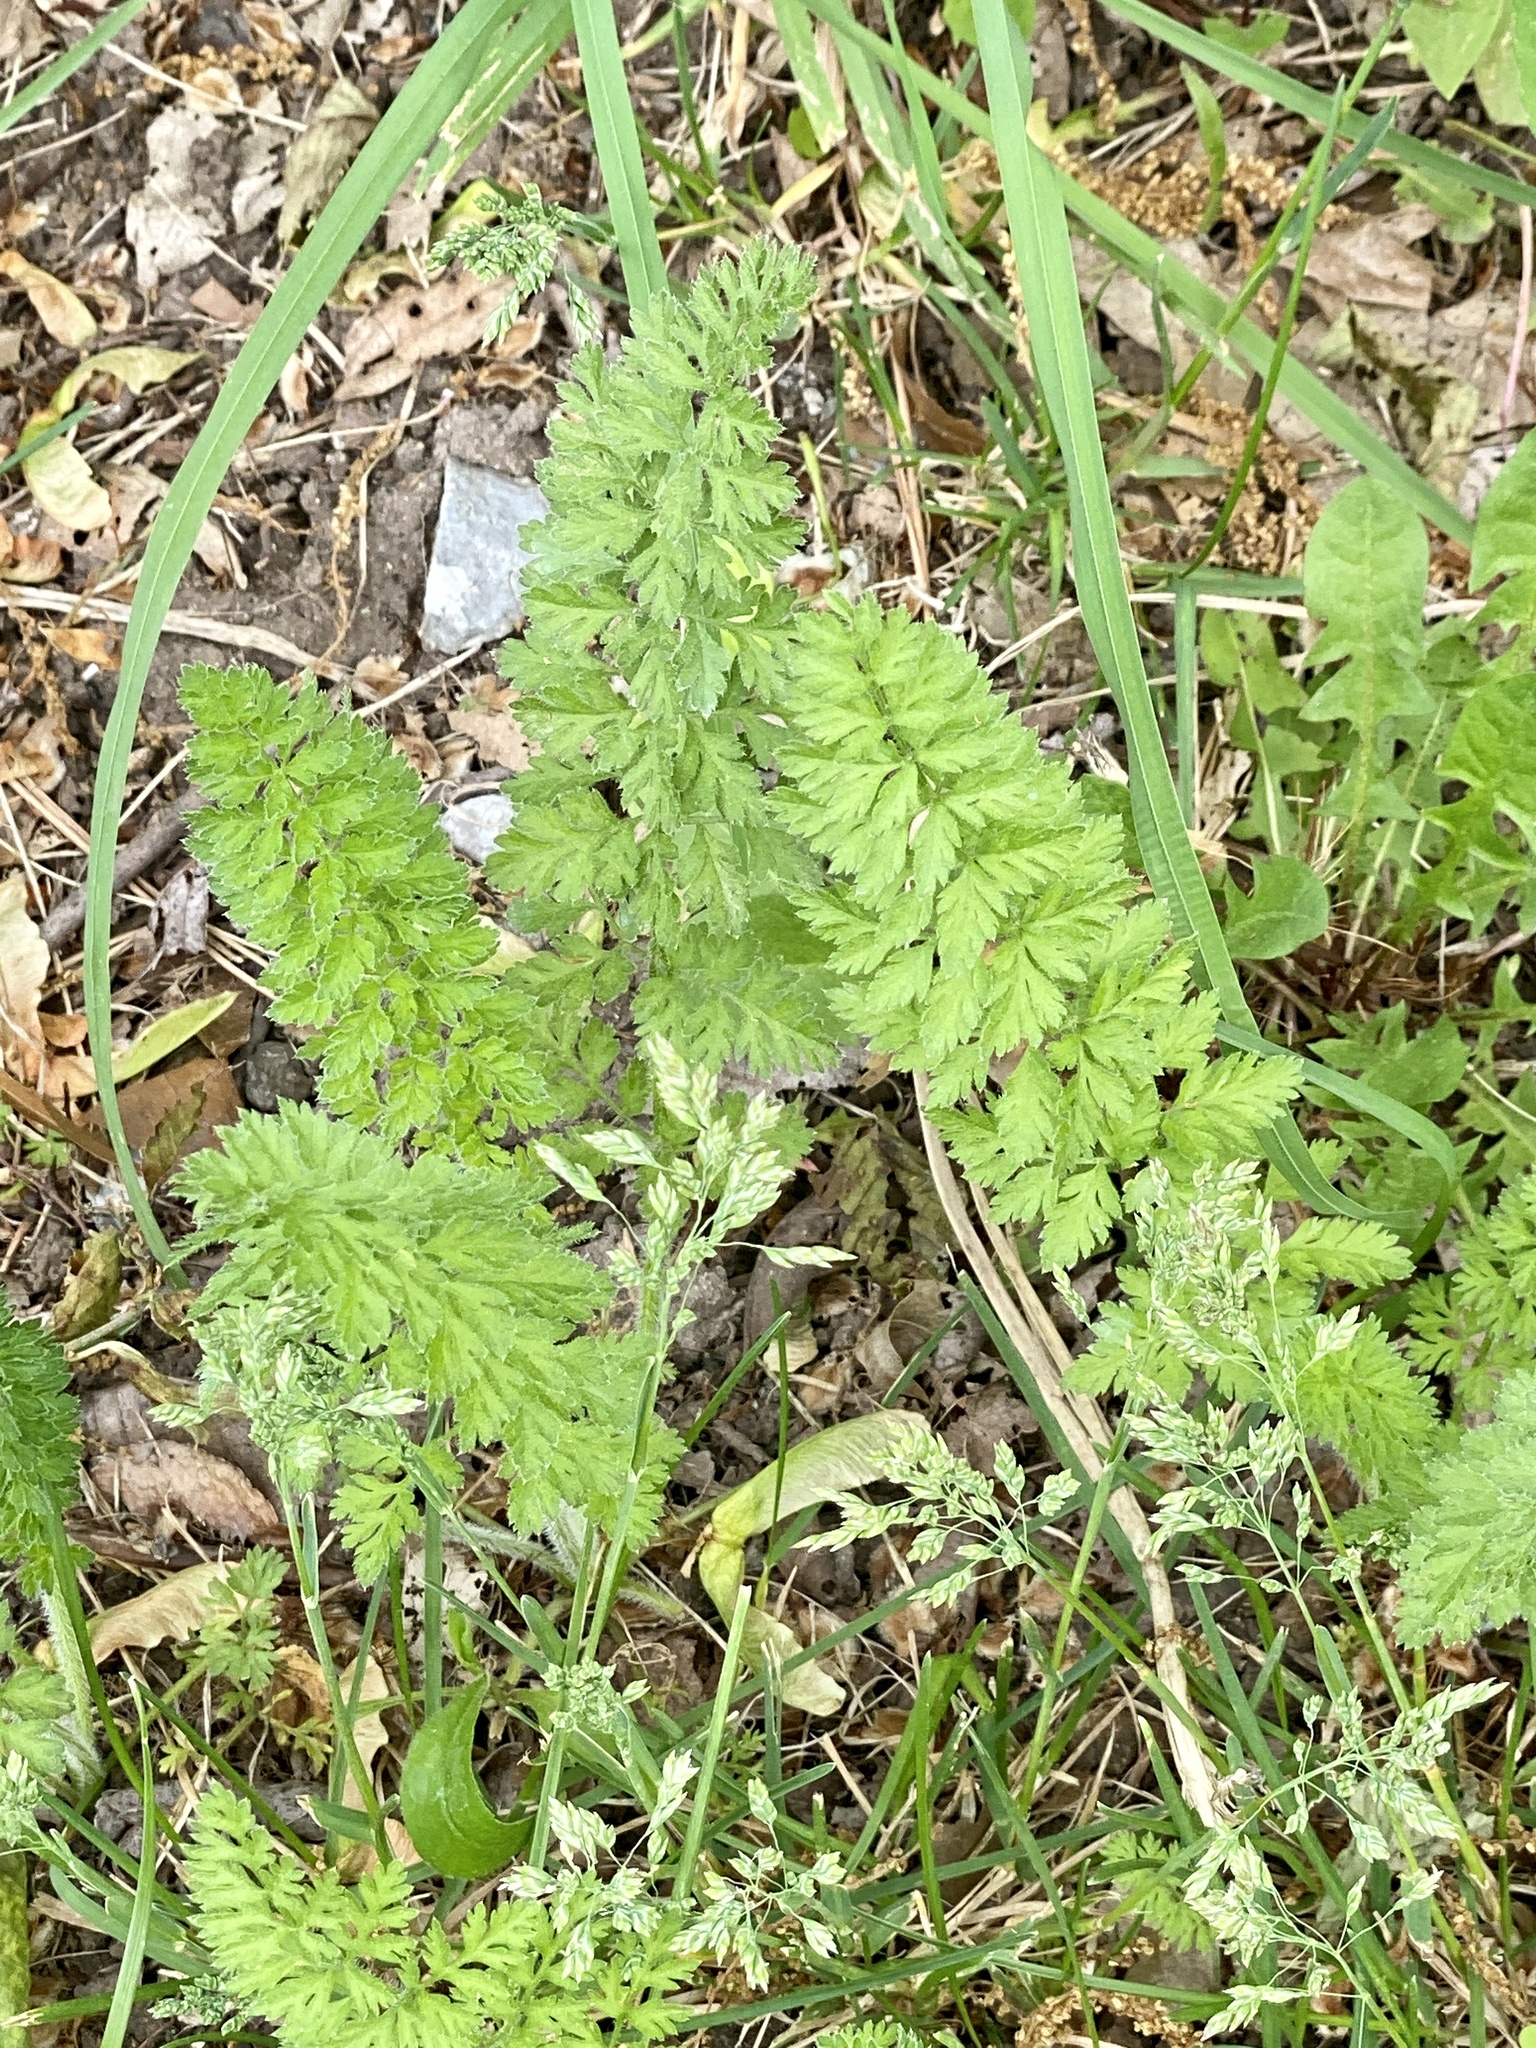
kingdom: Plantae
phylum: Tracheophyta
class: Magnoliopsida
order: Apiales
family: Apiaceae
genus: Daucus
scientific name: Daucus carota
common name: Wild carrot
